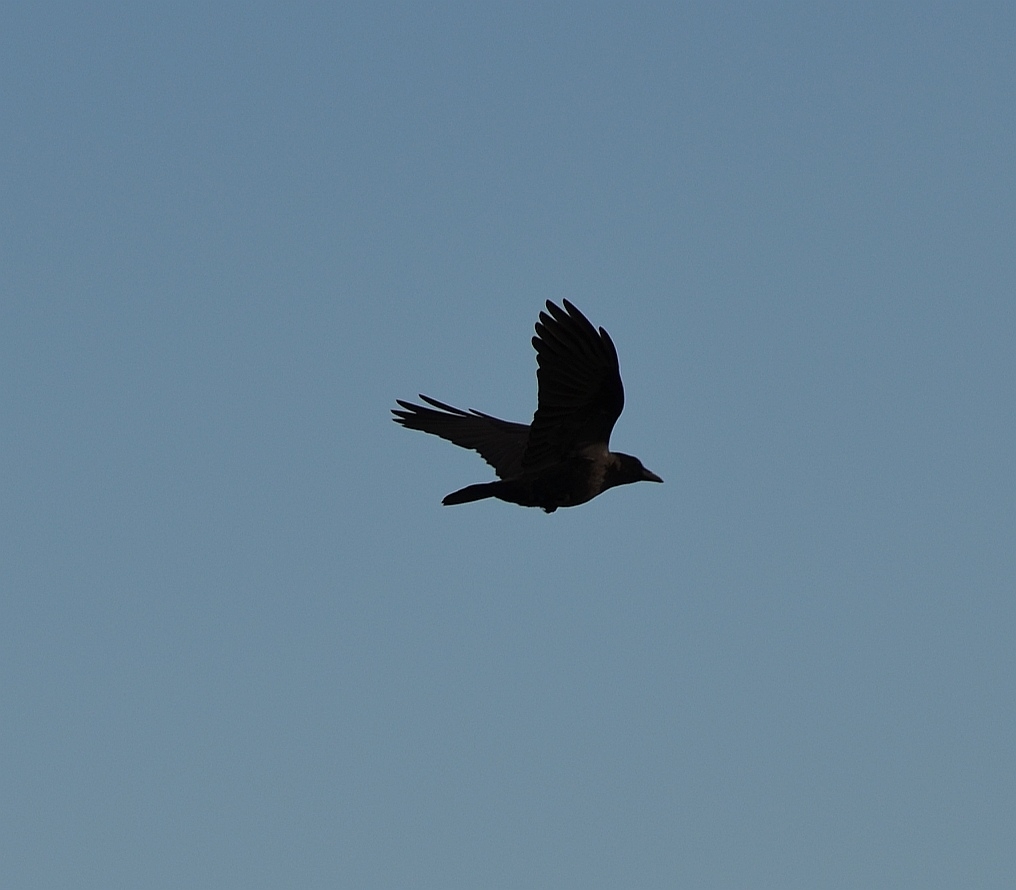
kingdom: Animalia
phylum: Chordata
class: Aves
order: Passeriformes
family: Corvidae
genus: Corvus
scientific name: Corvus
